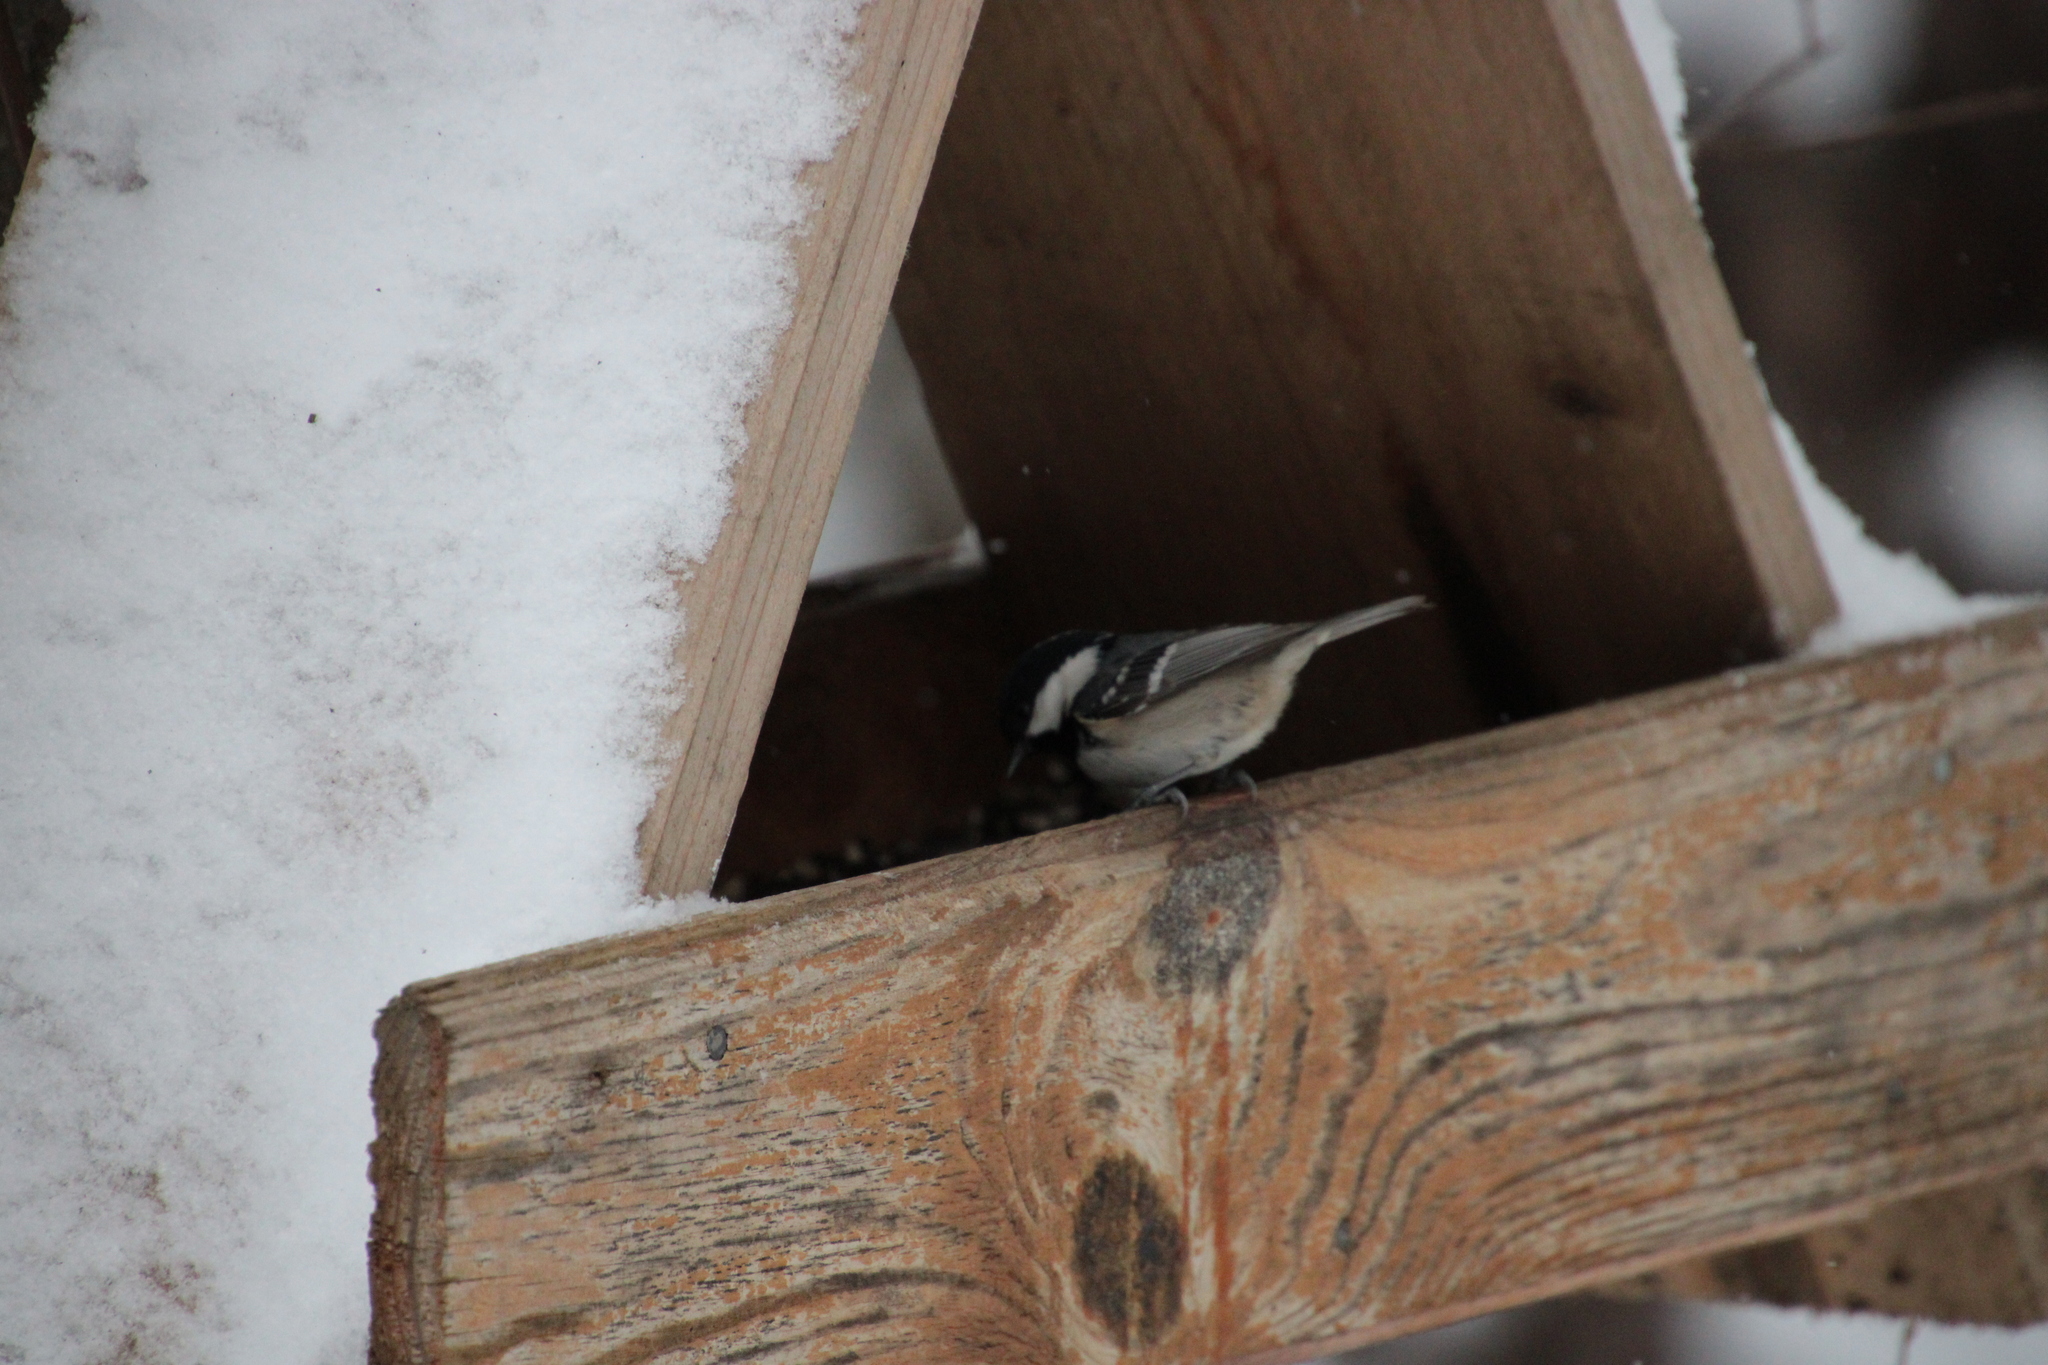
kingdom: Animalia
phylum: Chordata
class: Aves
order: Passeriformes
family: Paridae
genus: Periparus
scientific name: Periparus ater
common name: Coal tit
